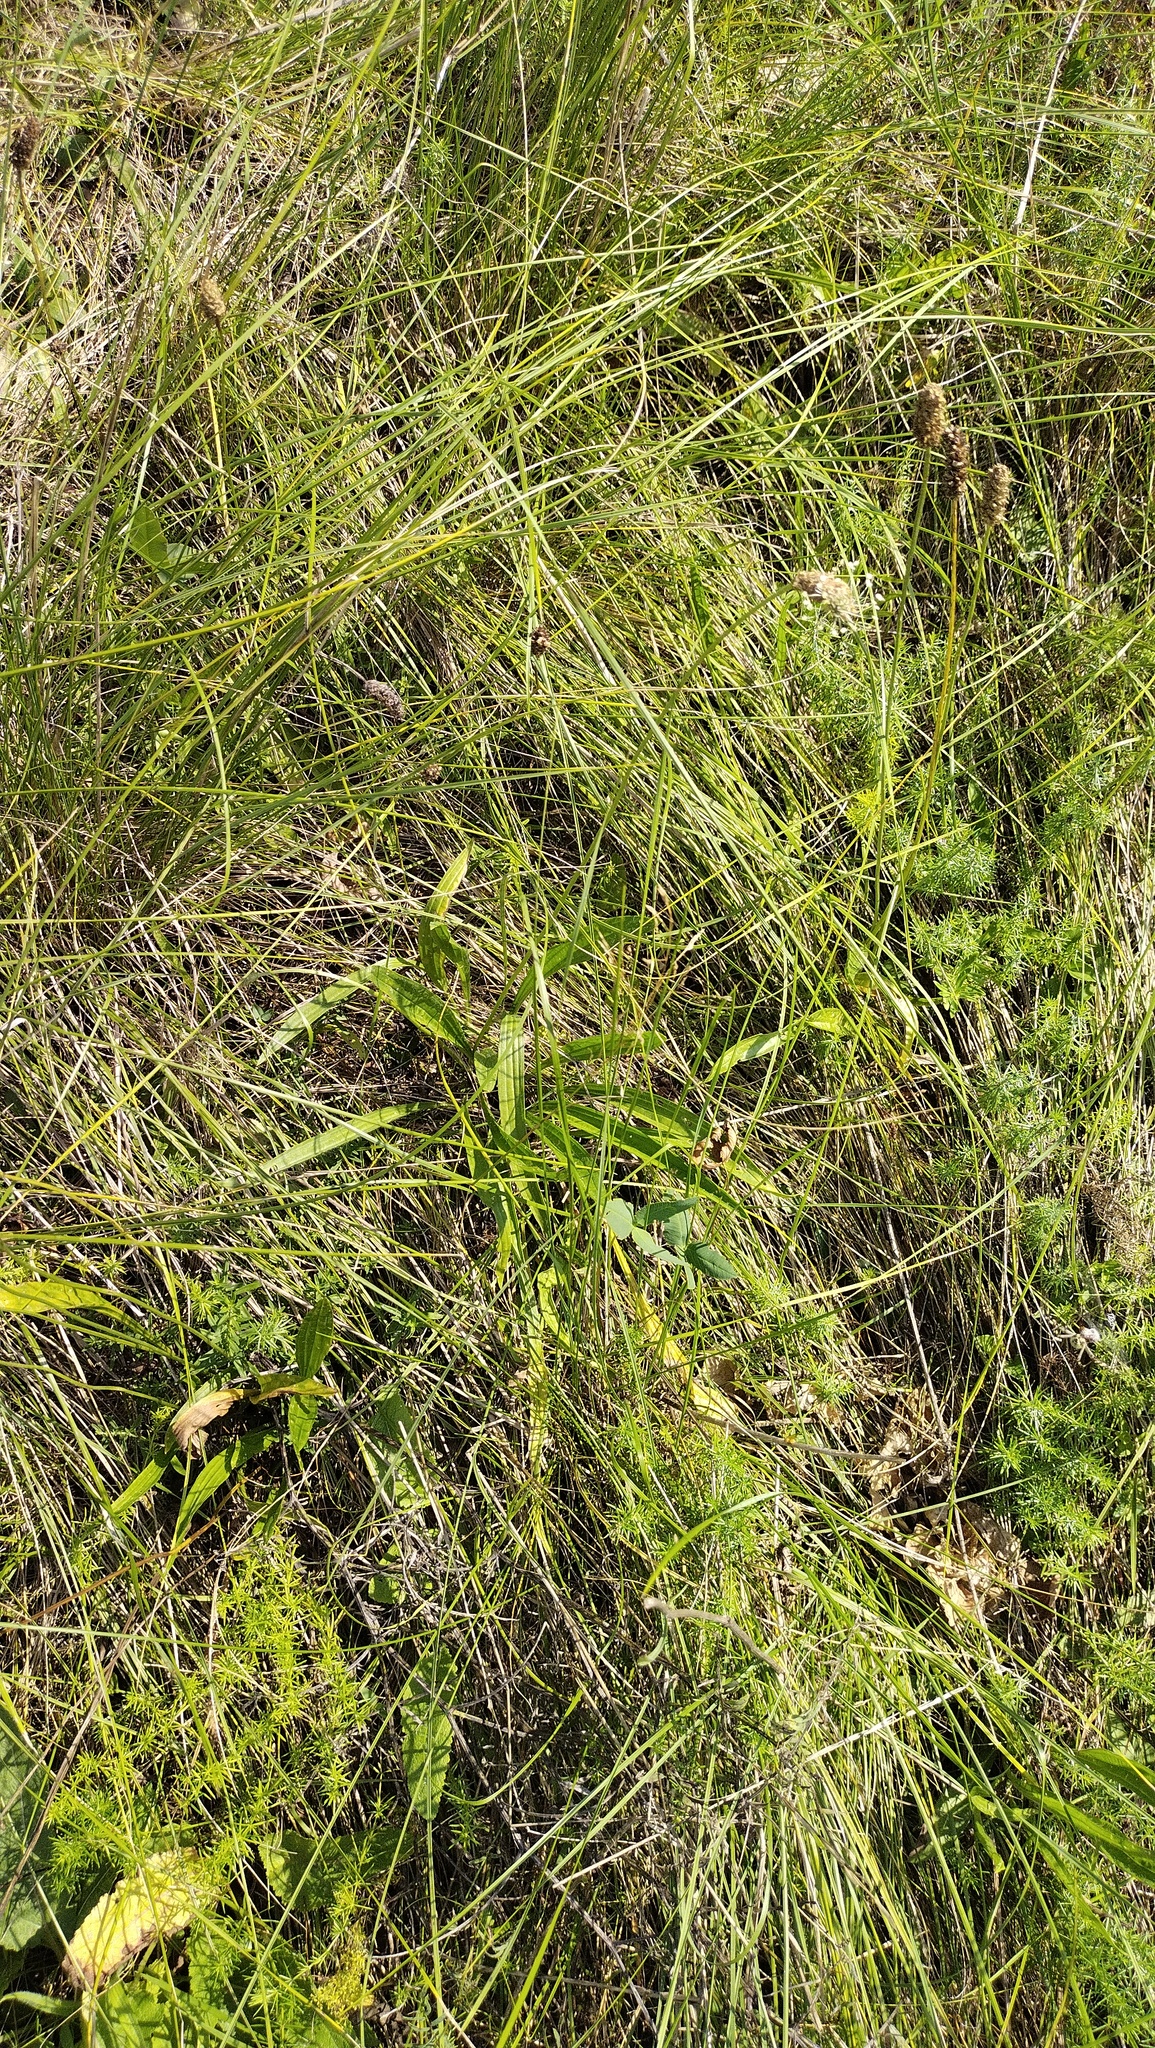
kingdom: Plantae
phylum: Tracheophyta
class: Magnoliopsida
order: Lamiales
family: Plantaginaceae
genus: Plantago
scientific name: Plantago lanceolata
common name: Ribwort plantain
